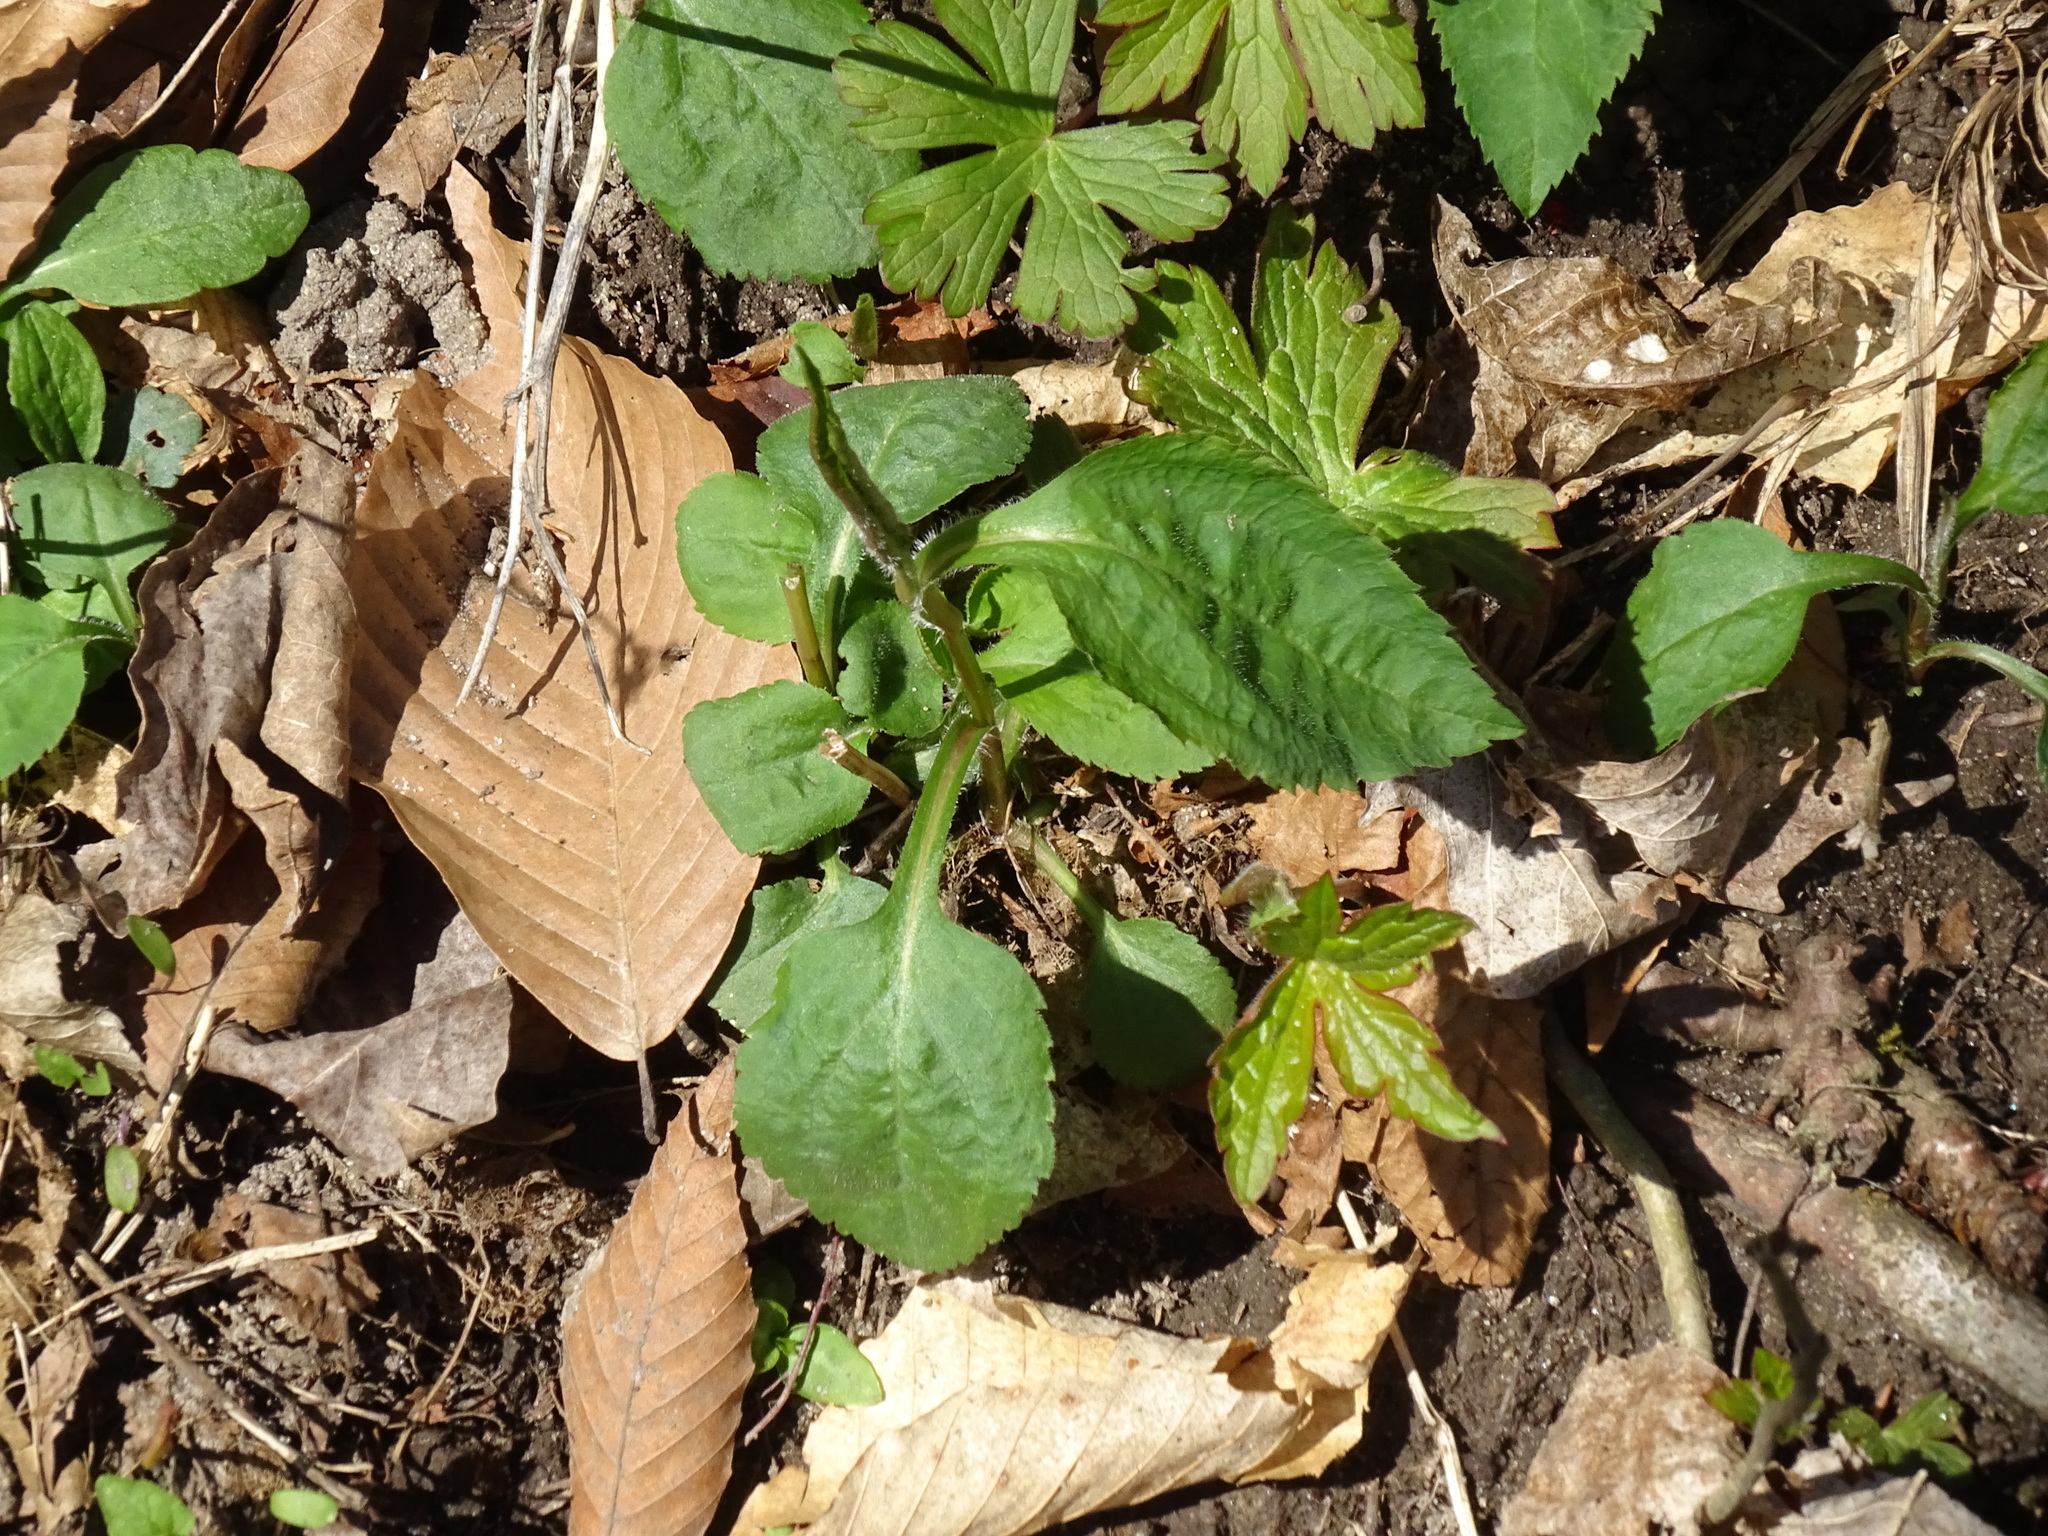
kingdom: Plantae
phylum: Tracheophyta
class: Magnoliopsida
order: Asterales
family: Asteraceae
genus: Solidago
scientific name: Solidago flexicaulis
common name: Zig-zag goldenrod
